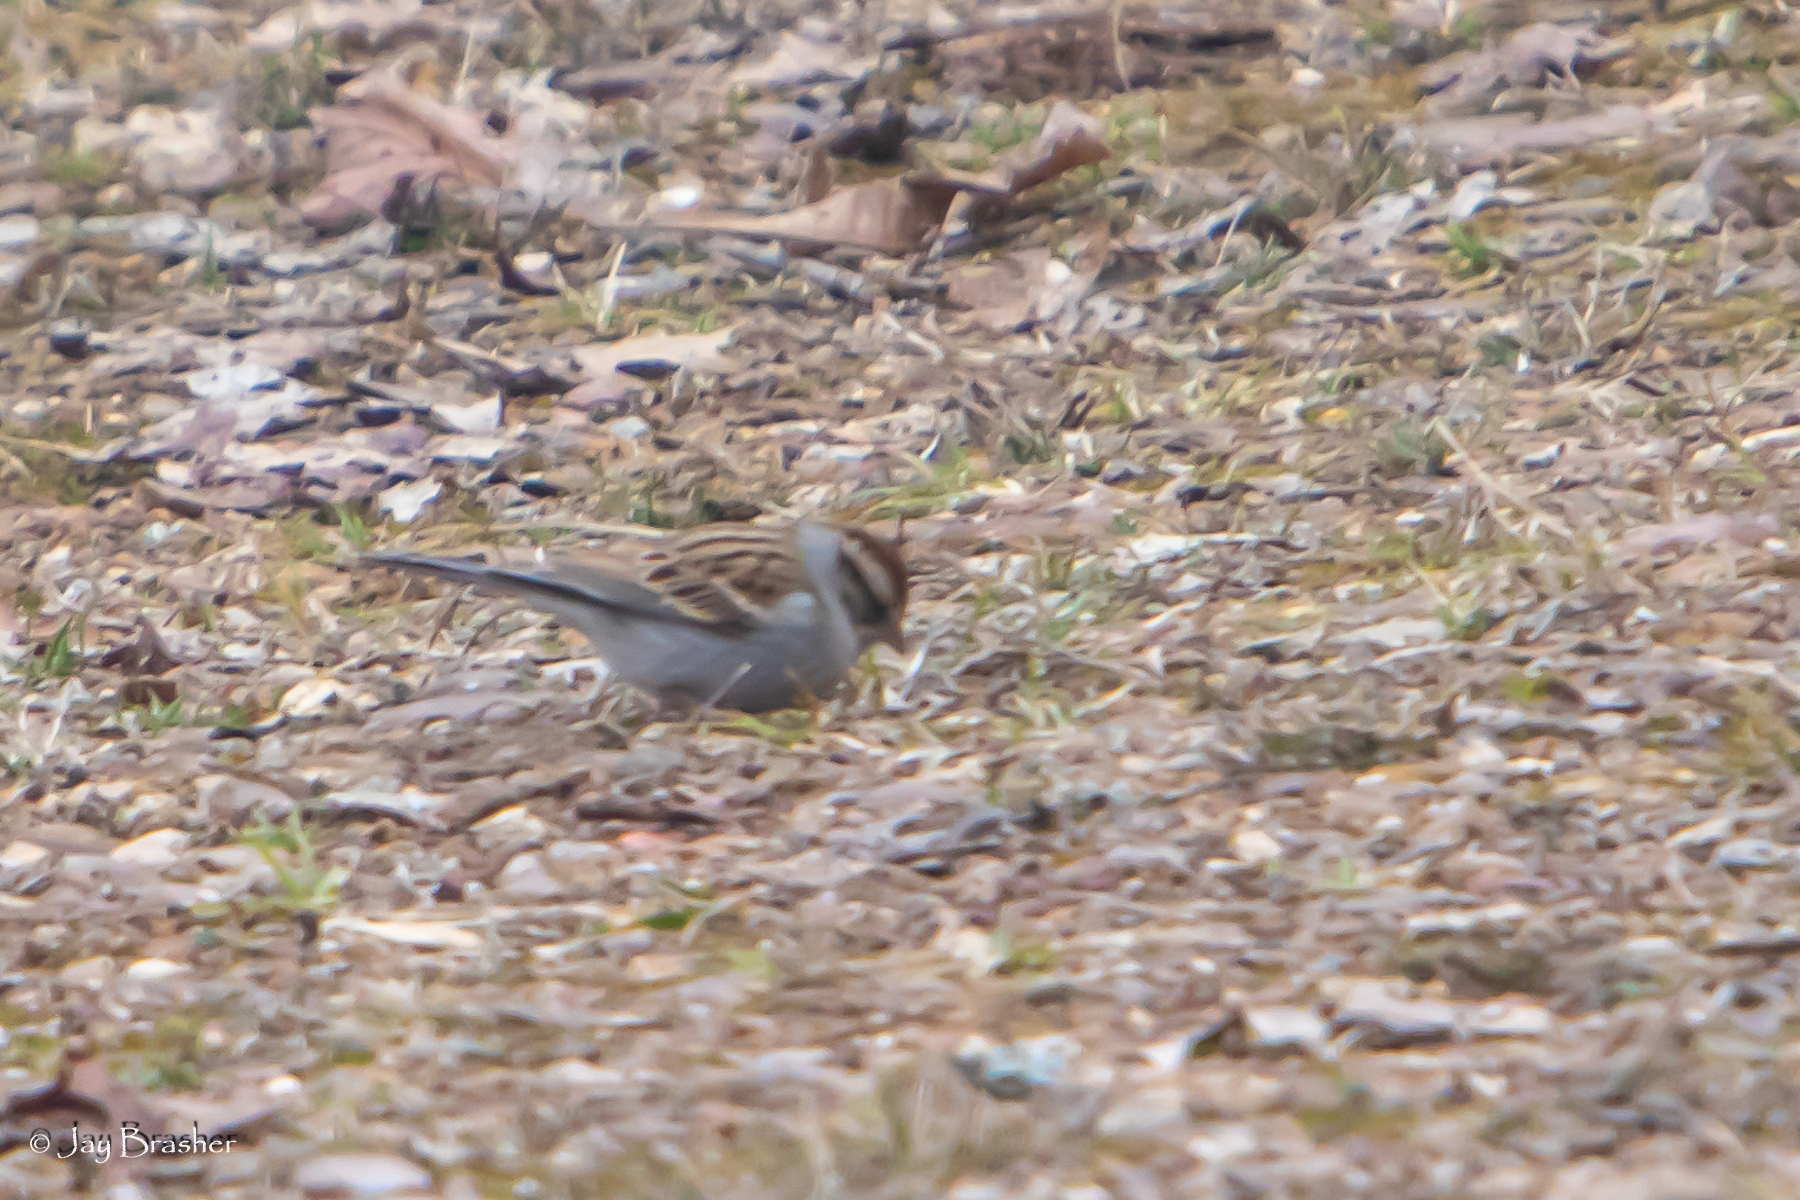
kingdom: Animalia
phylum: Chordata
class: Aves
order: Passeriformes
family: Passerellidae
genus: Spizella
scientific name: Spizella passerina
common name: Chipping sparrow
